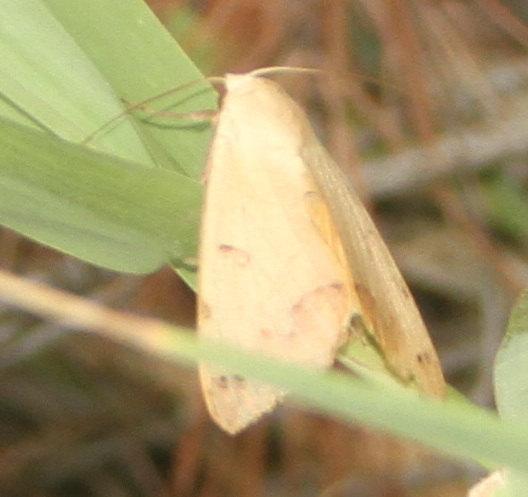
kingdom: Animalia
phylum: Arthropoda
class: Insecta
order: Lepidoptera
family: Erebidae
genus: Ophiusa
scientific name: Ophiusa tirhaca
